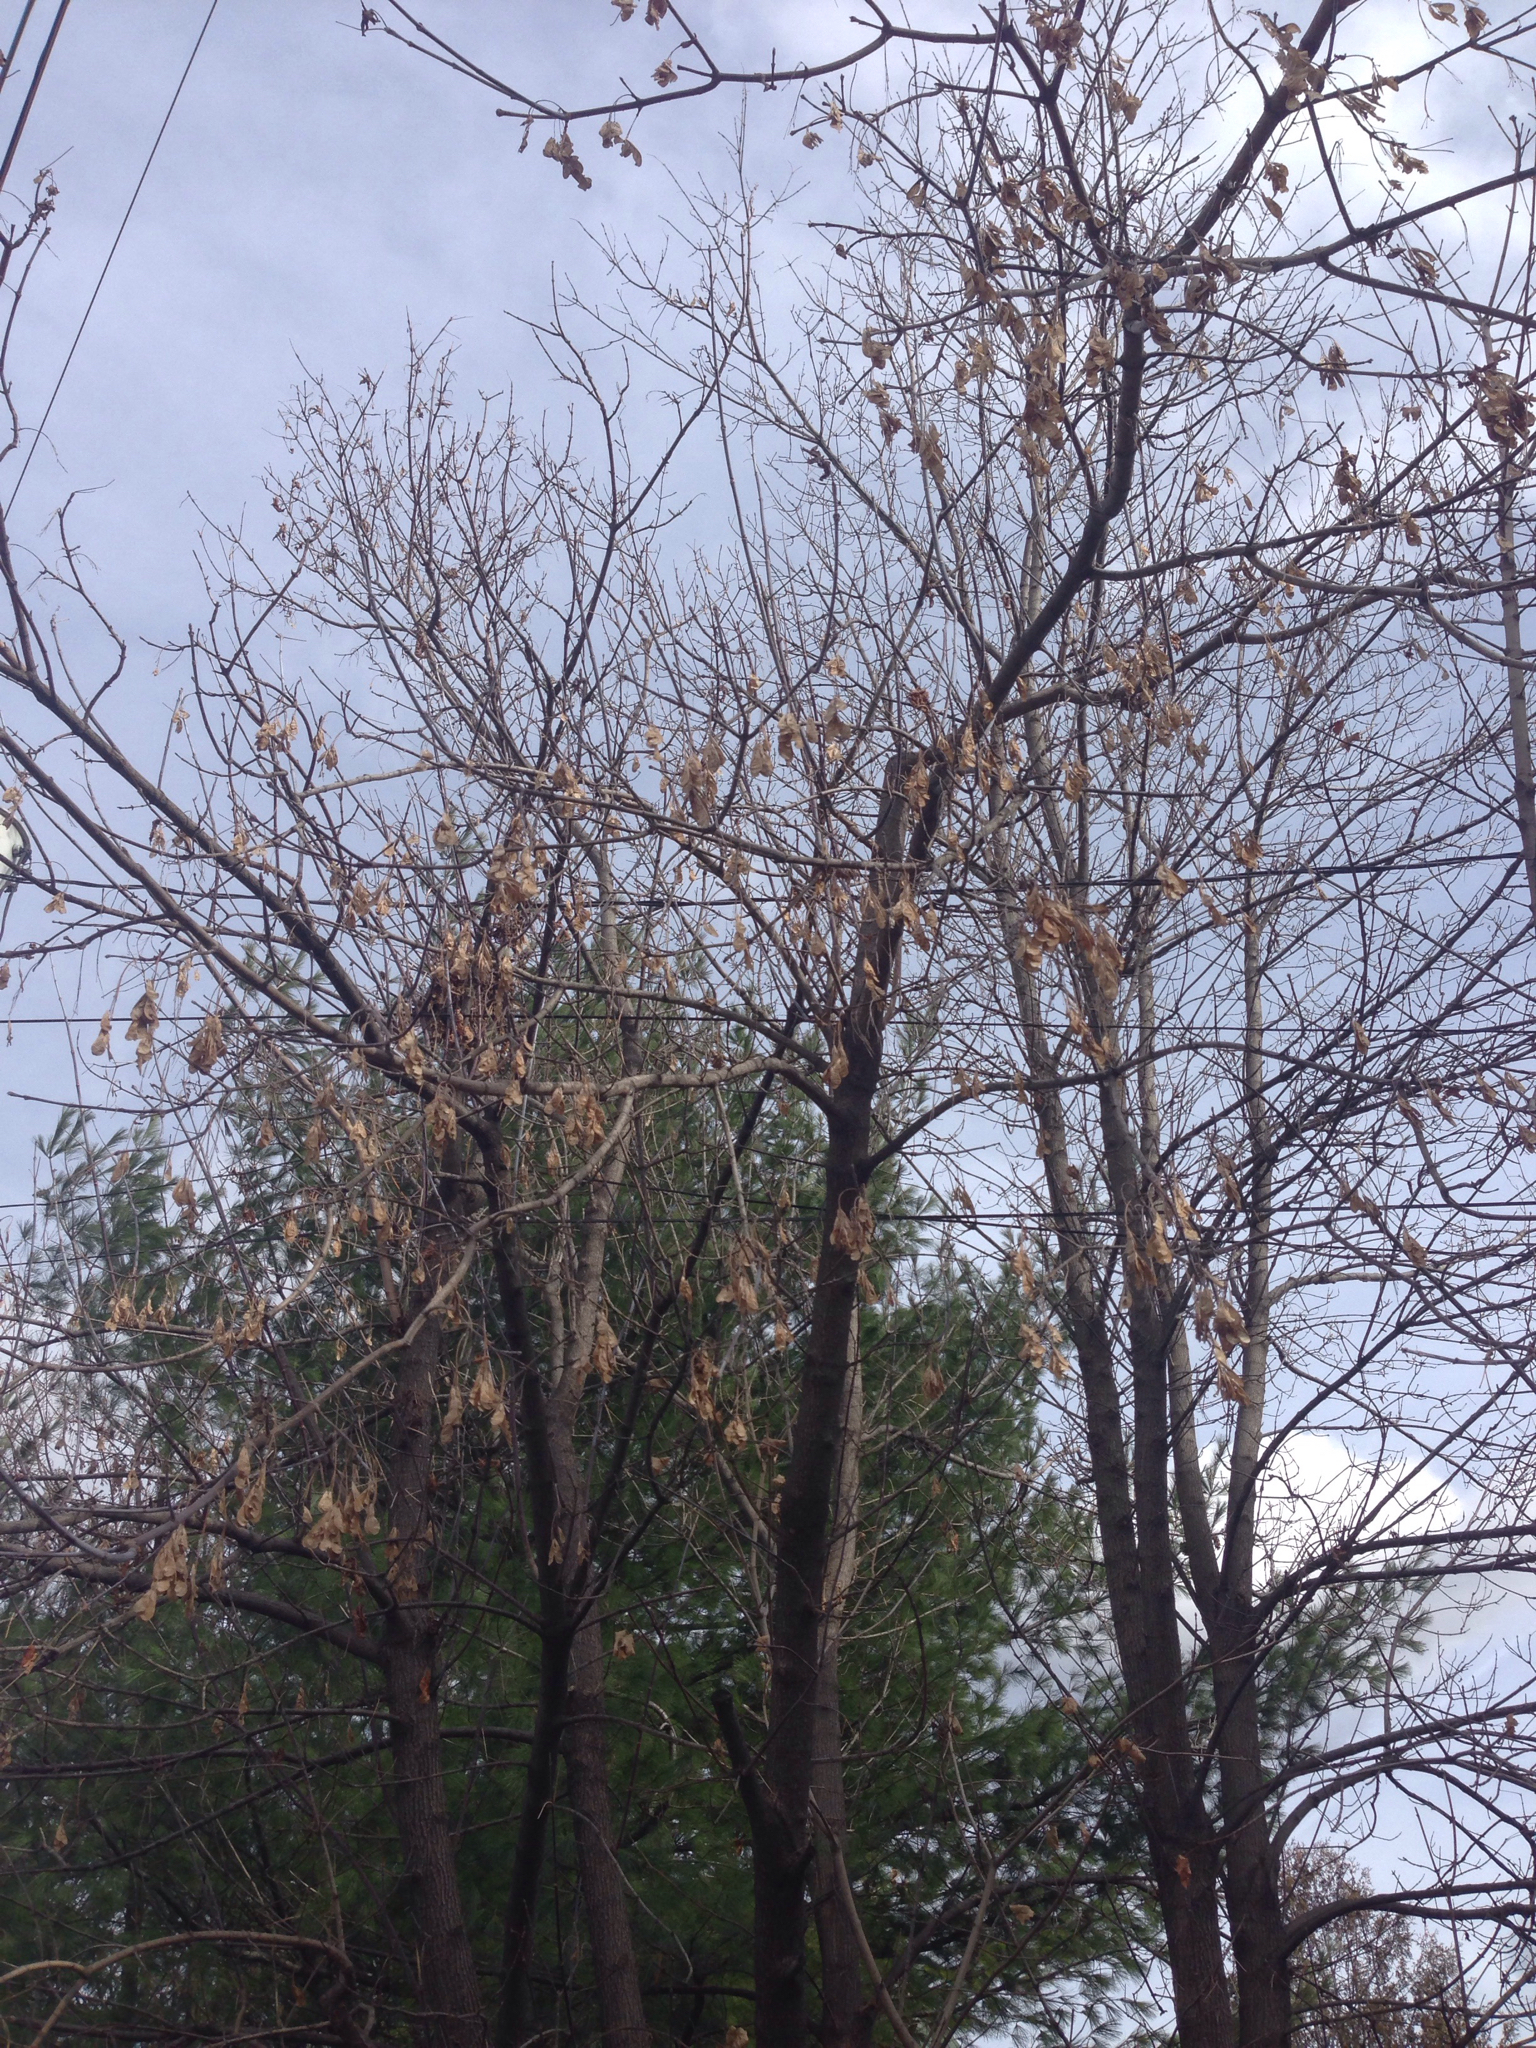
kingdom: Plantae
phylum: Tracheophyta
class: Magnoliopsida
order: Sapindales
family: Sapindaceae
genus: Acer
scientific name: Acer negundo
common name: Ashleaf maple
